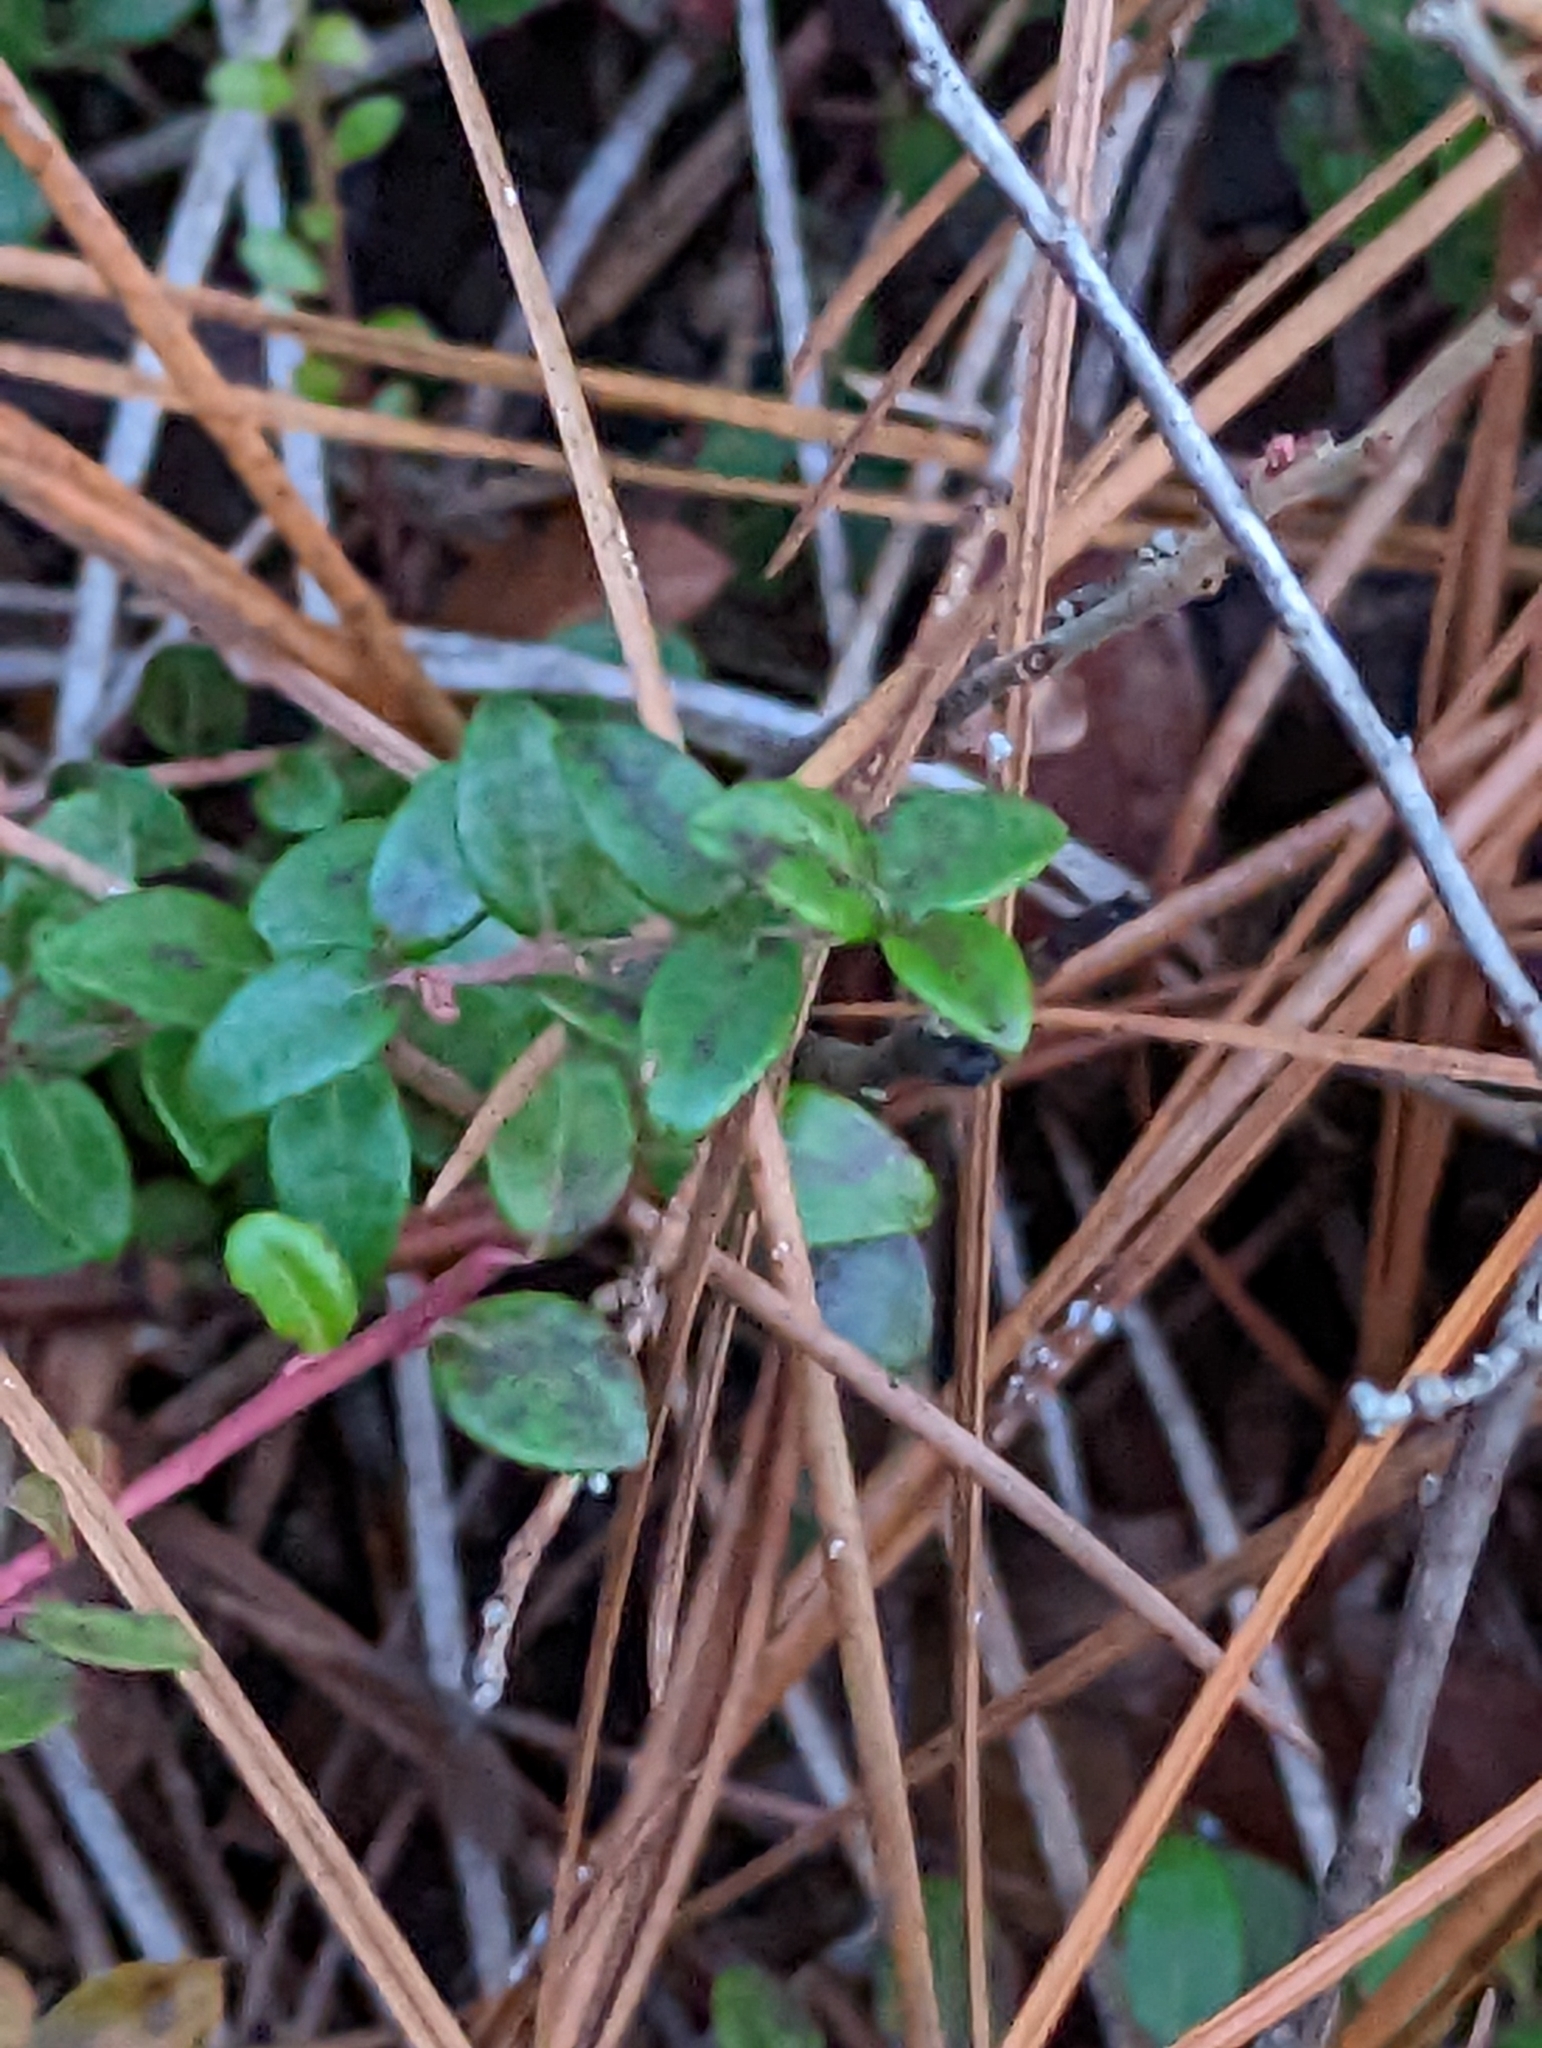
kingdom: Plantae
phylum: Tracheophyta
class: Magnoliopsida
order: Ericales
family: Ericaceae
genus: Vaccinium
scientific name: Vaccinium crassifolium
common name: Creeping blueberry
